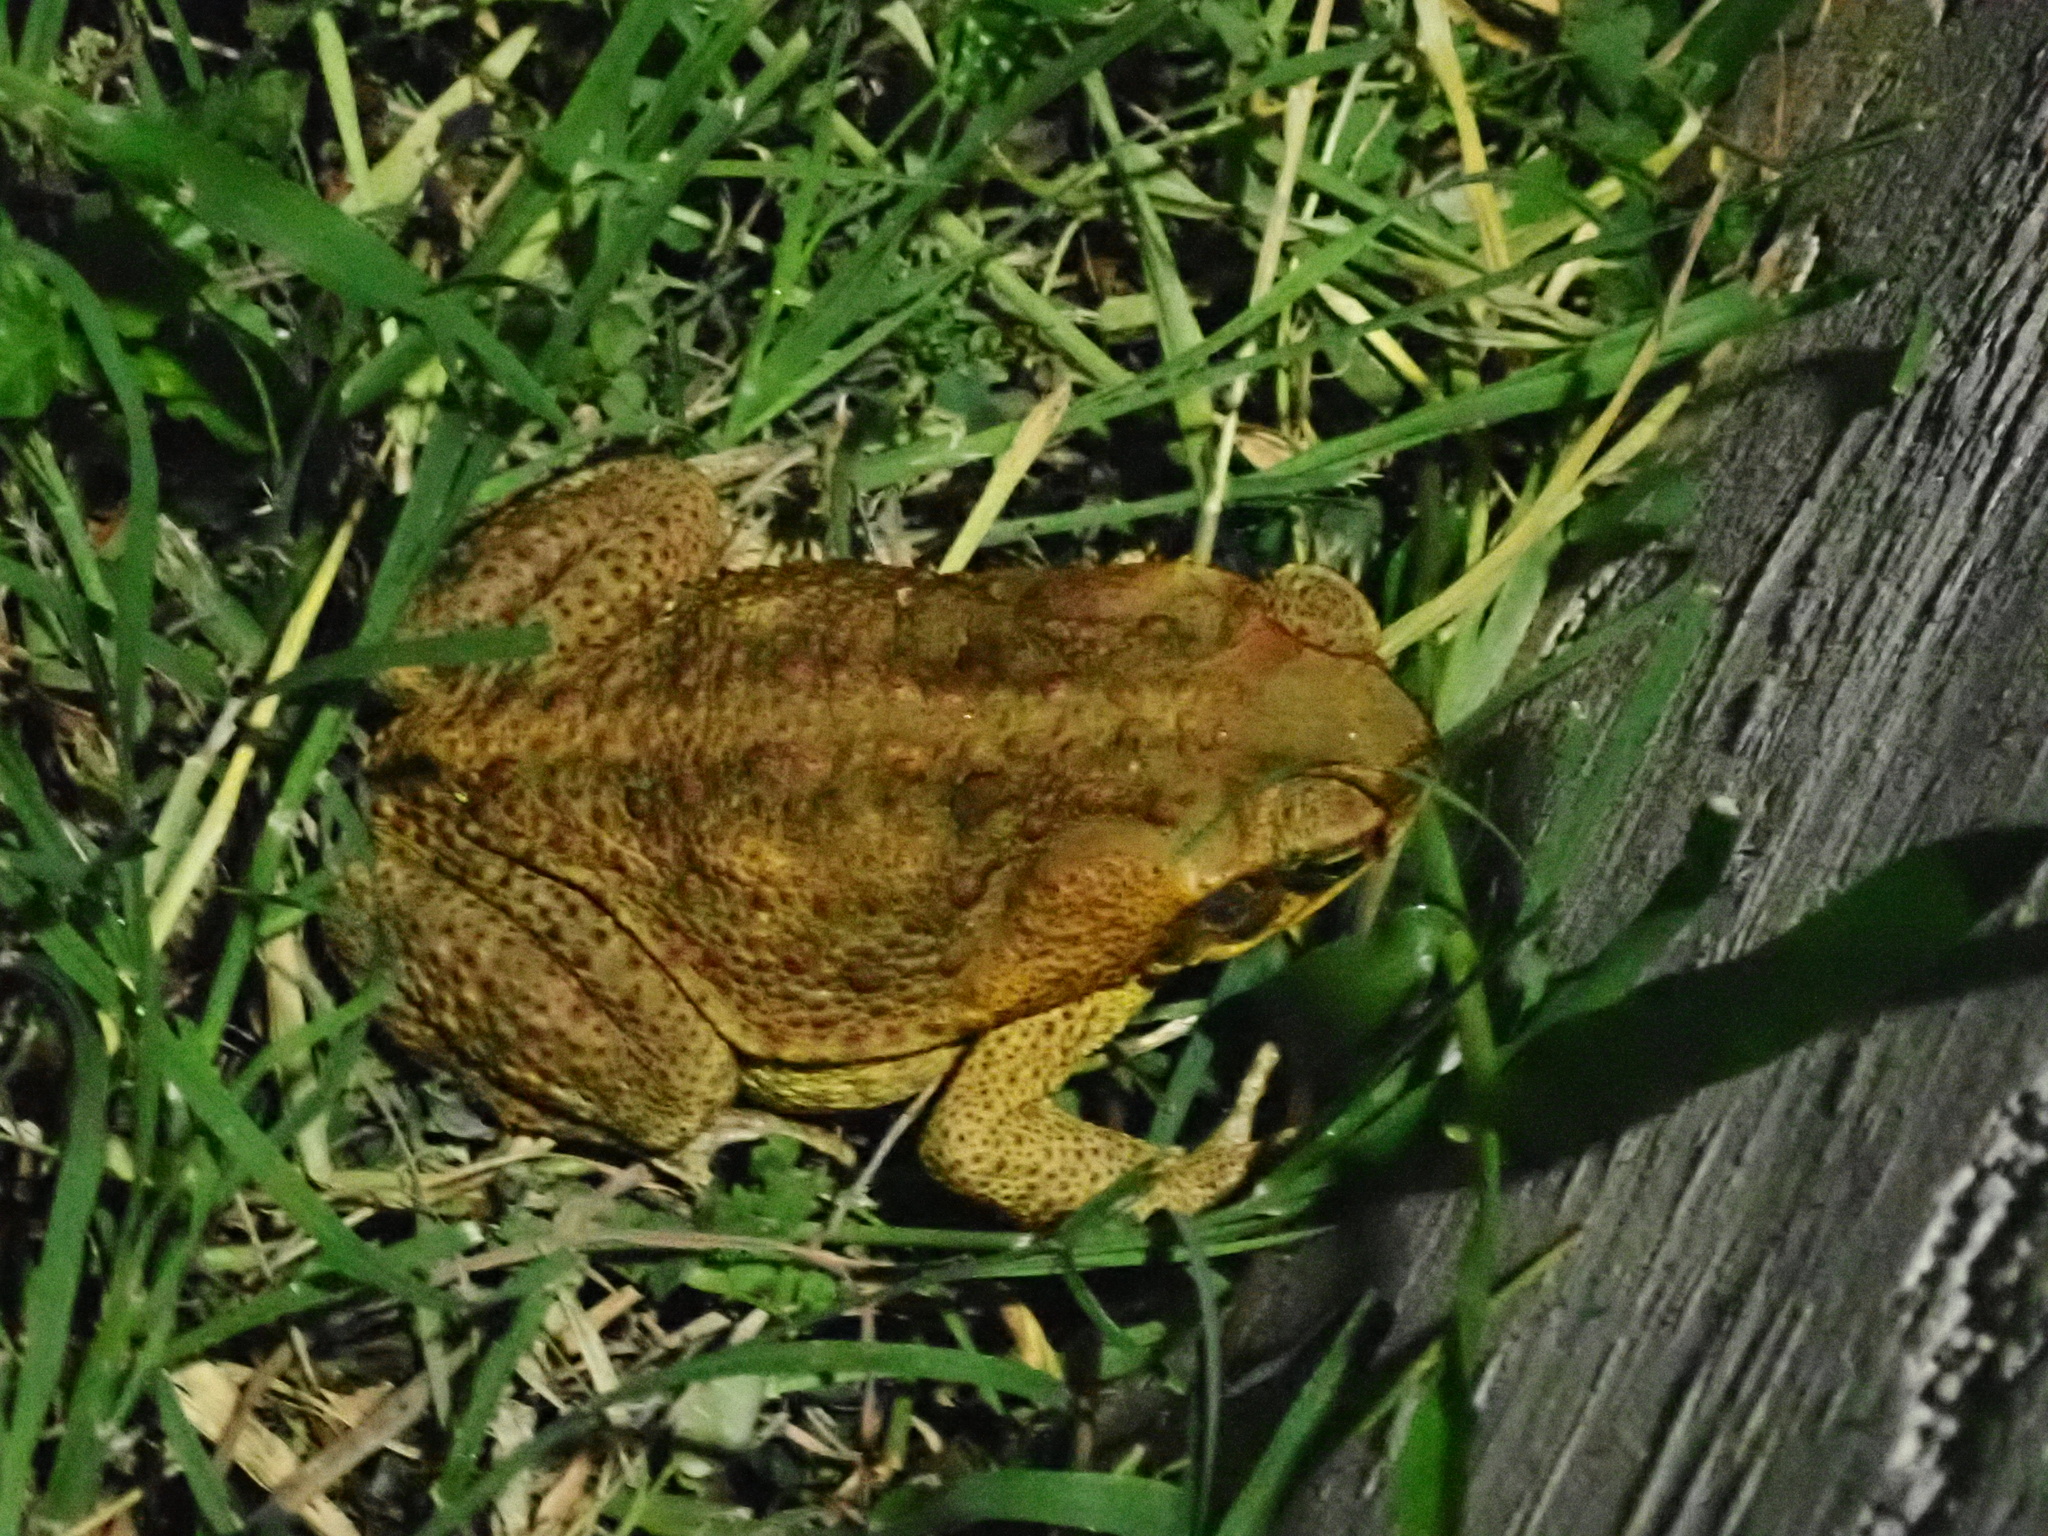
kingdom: Animalia
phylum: Chordata
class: Amphibia
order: Anura
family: Bufonidae
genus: Rhinella
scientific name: Rhinella marina
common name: Cane toad
